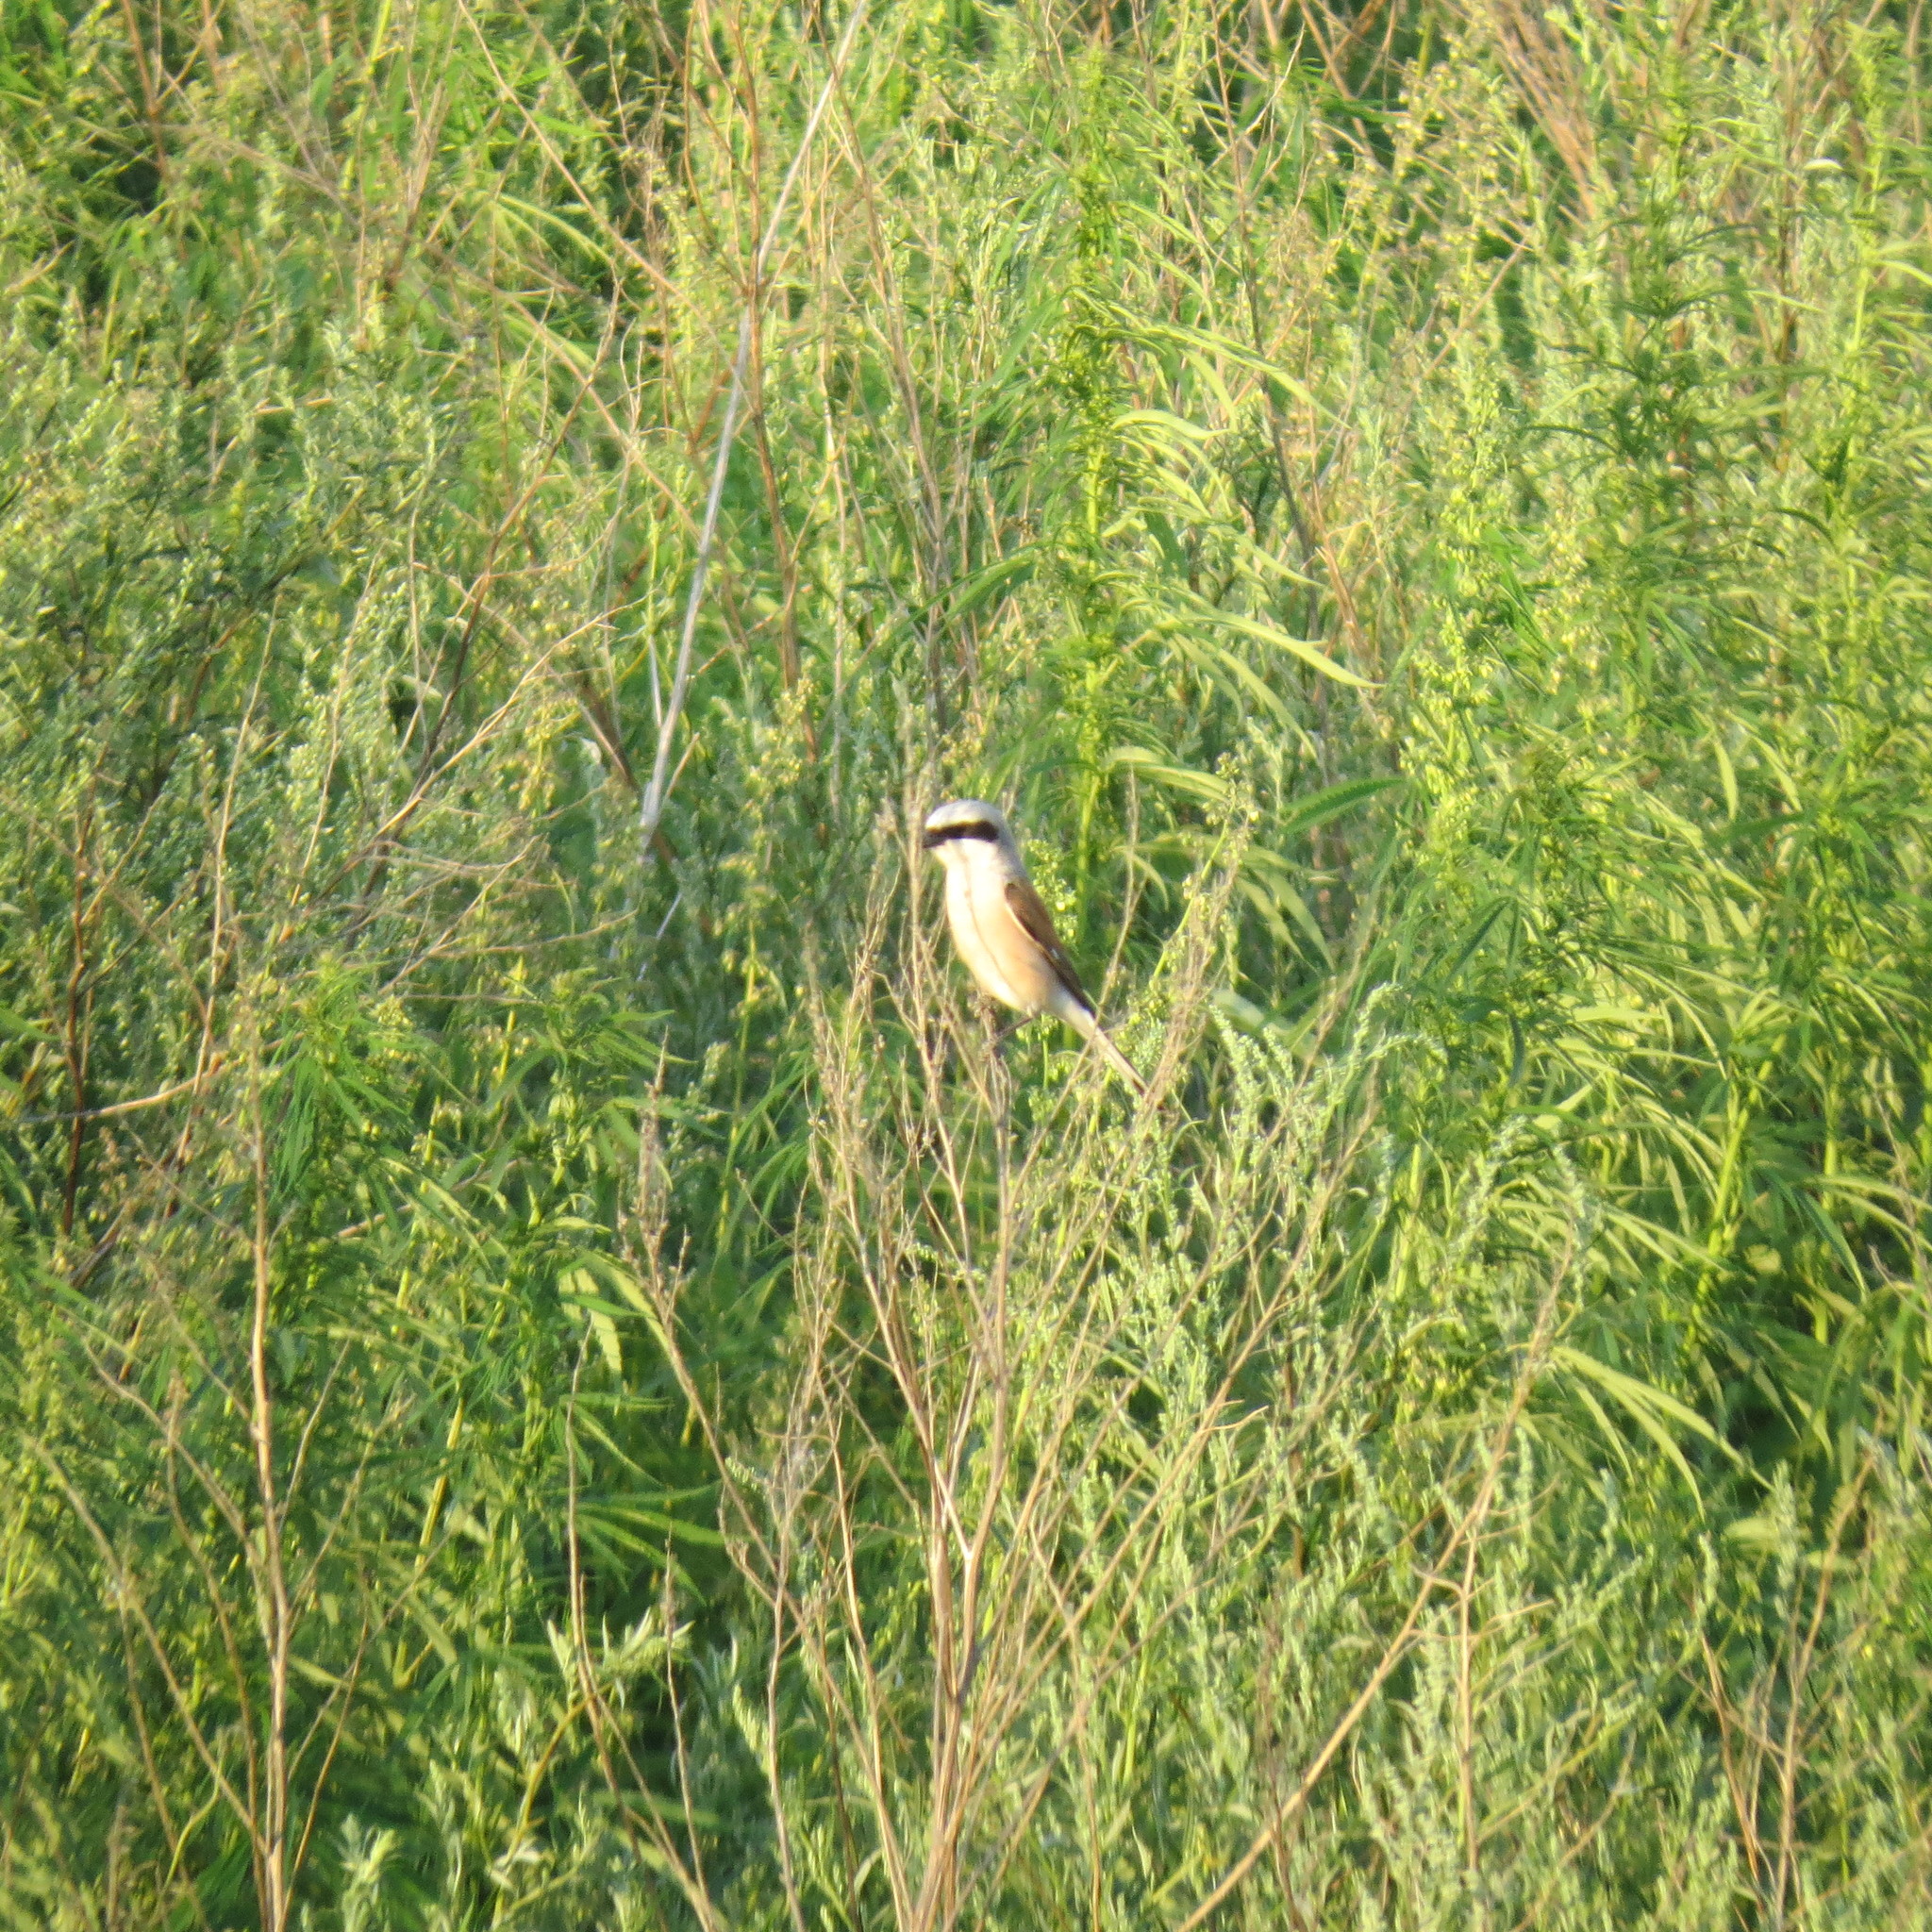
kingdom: Animalia
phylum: Chordata
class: Aves
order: Passeriformes
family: Laniidae
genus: Lanius
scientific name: Lanius collurio
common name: Red-backed shrike
